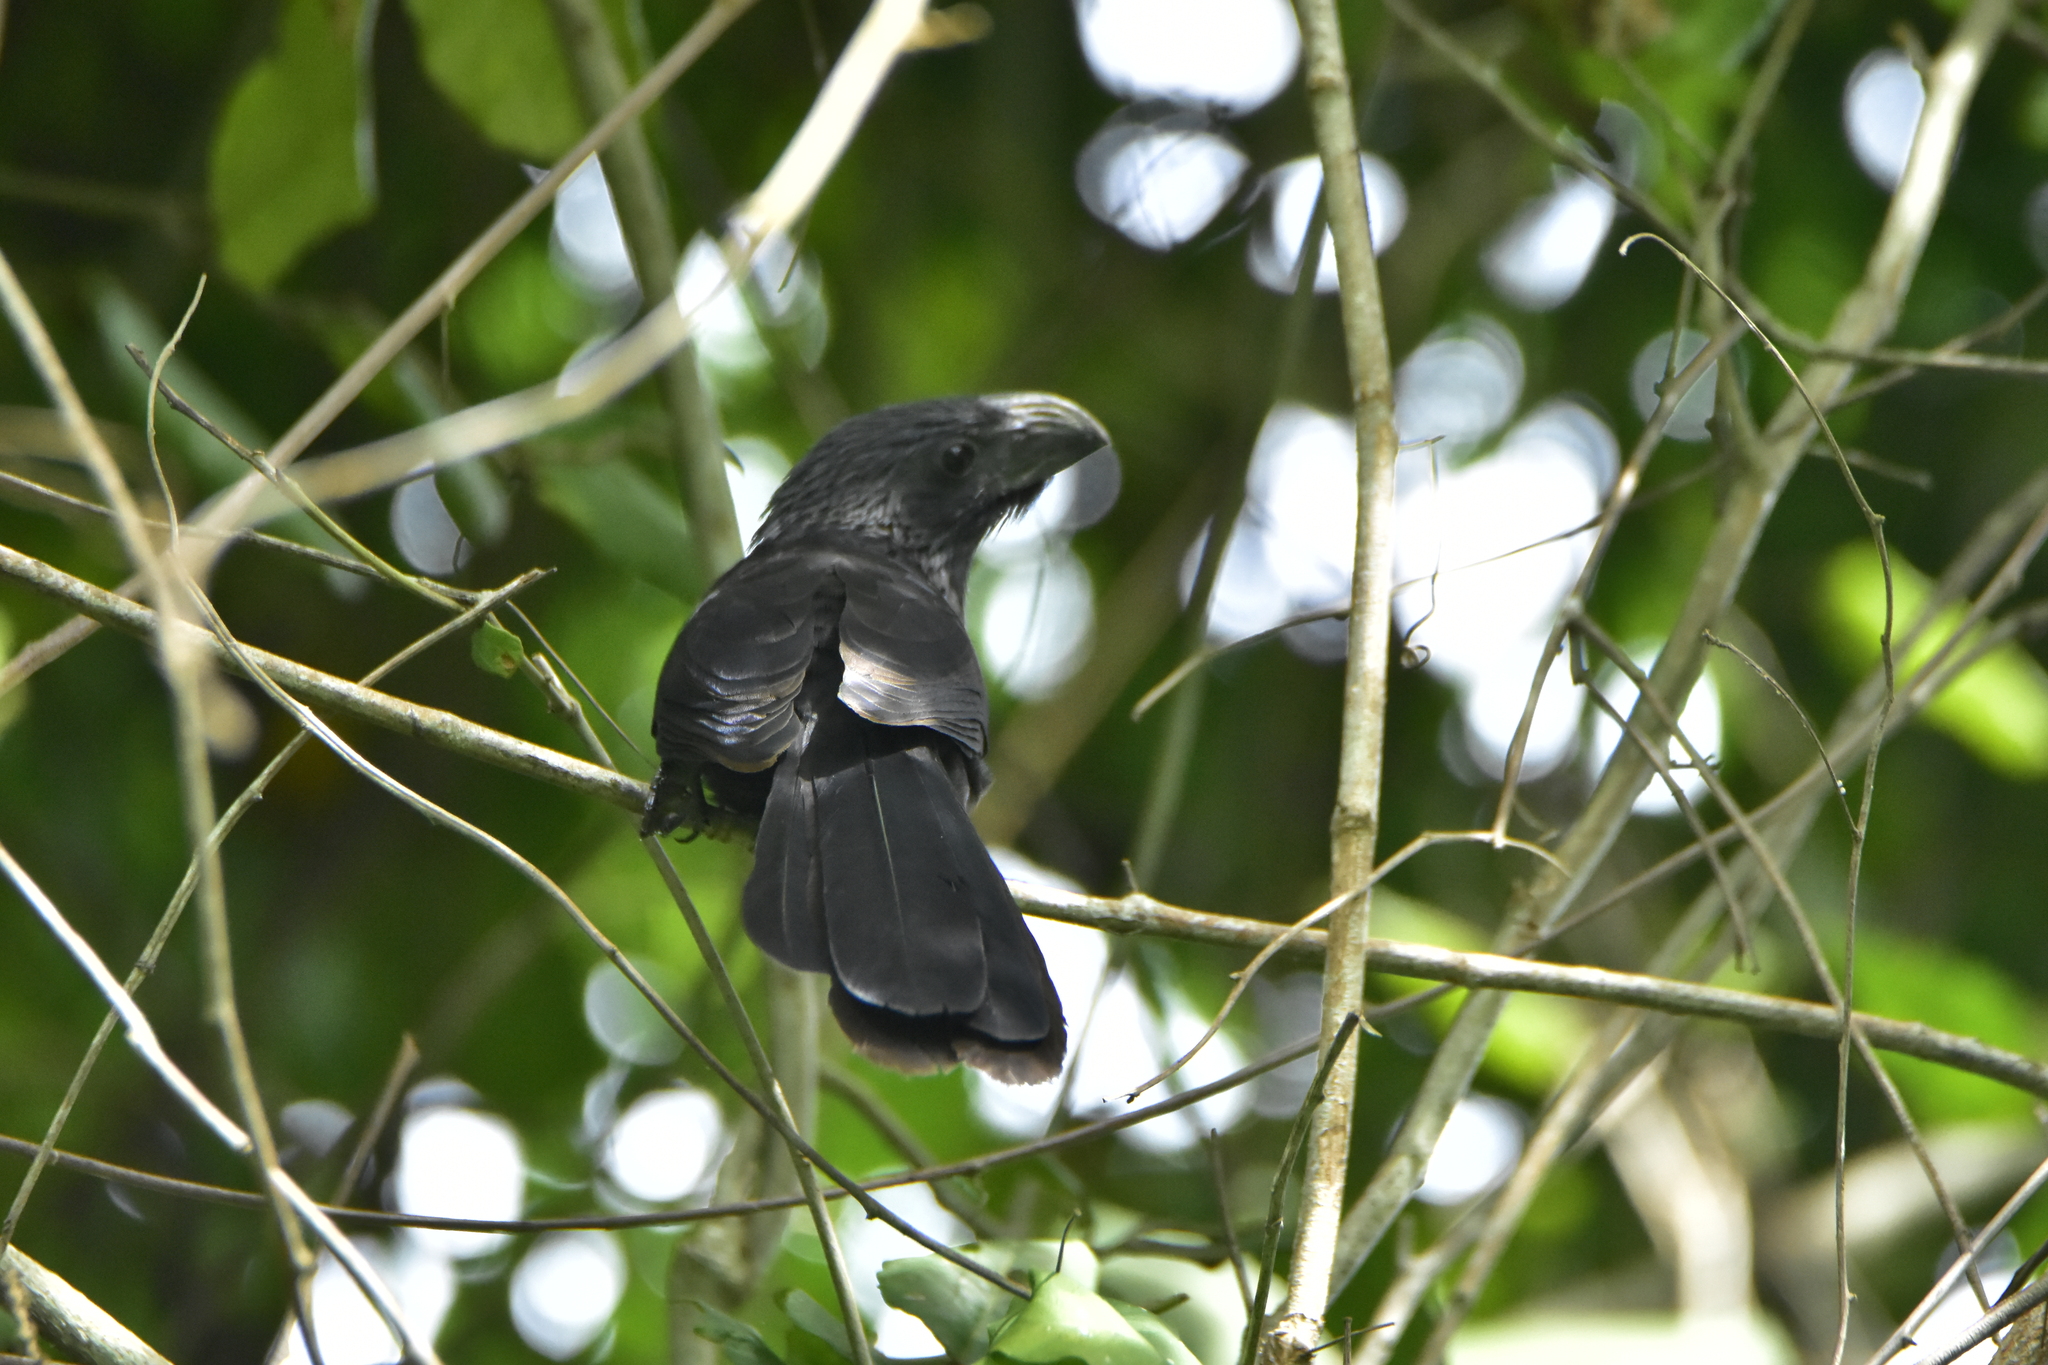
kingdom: Animalia
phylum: Chordata
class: Aves
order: Cuculiformes
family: Cuculidae
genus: Crotophaga
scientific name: Crotophaga sulcirostris
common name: Groove-billed ani
